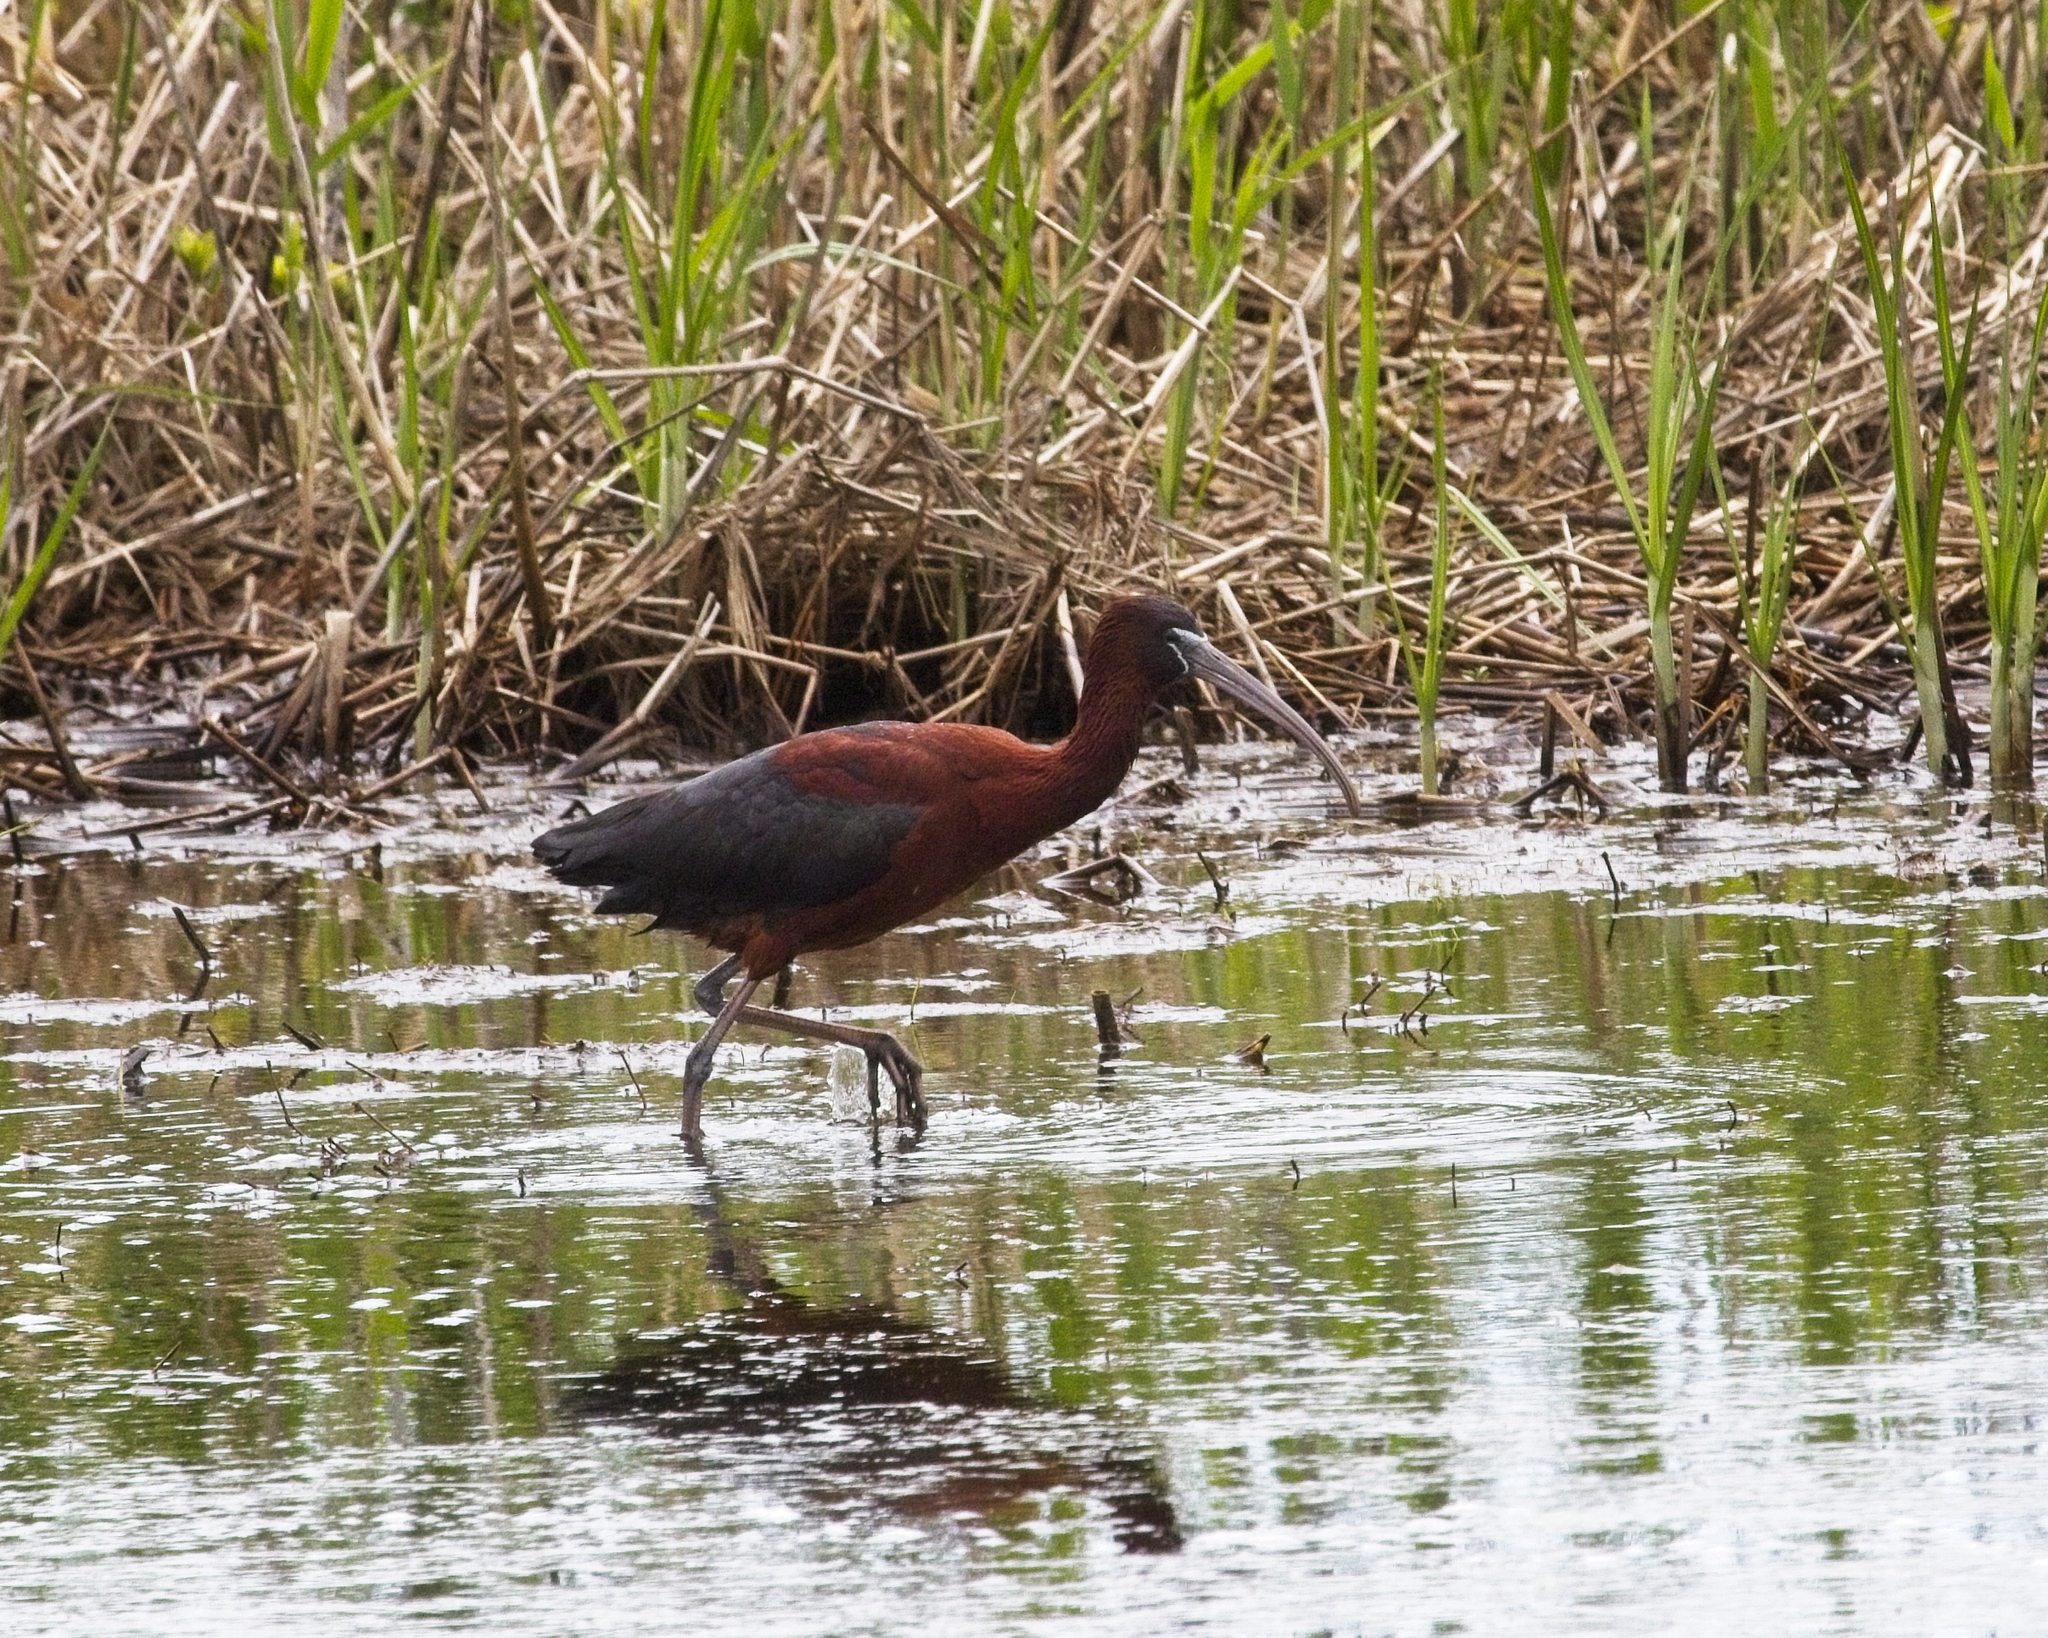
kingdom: Animalia
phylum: Chordata
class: Aves
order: Pelecaniformes
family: Threskiornithidae
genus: Plegadis
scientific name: Plegadis falcinellus
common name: Glossy ibis
